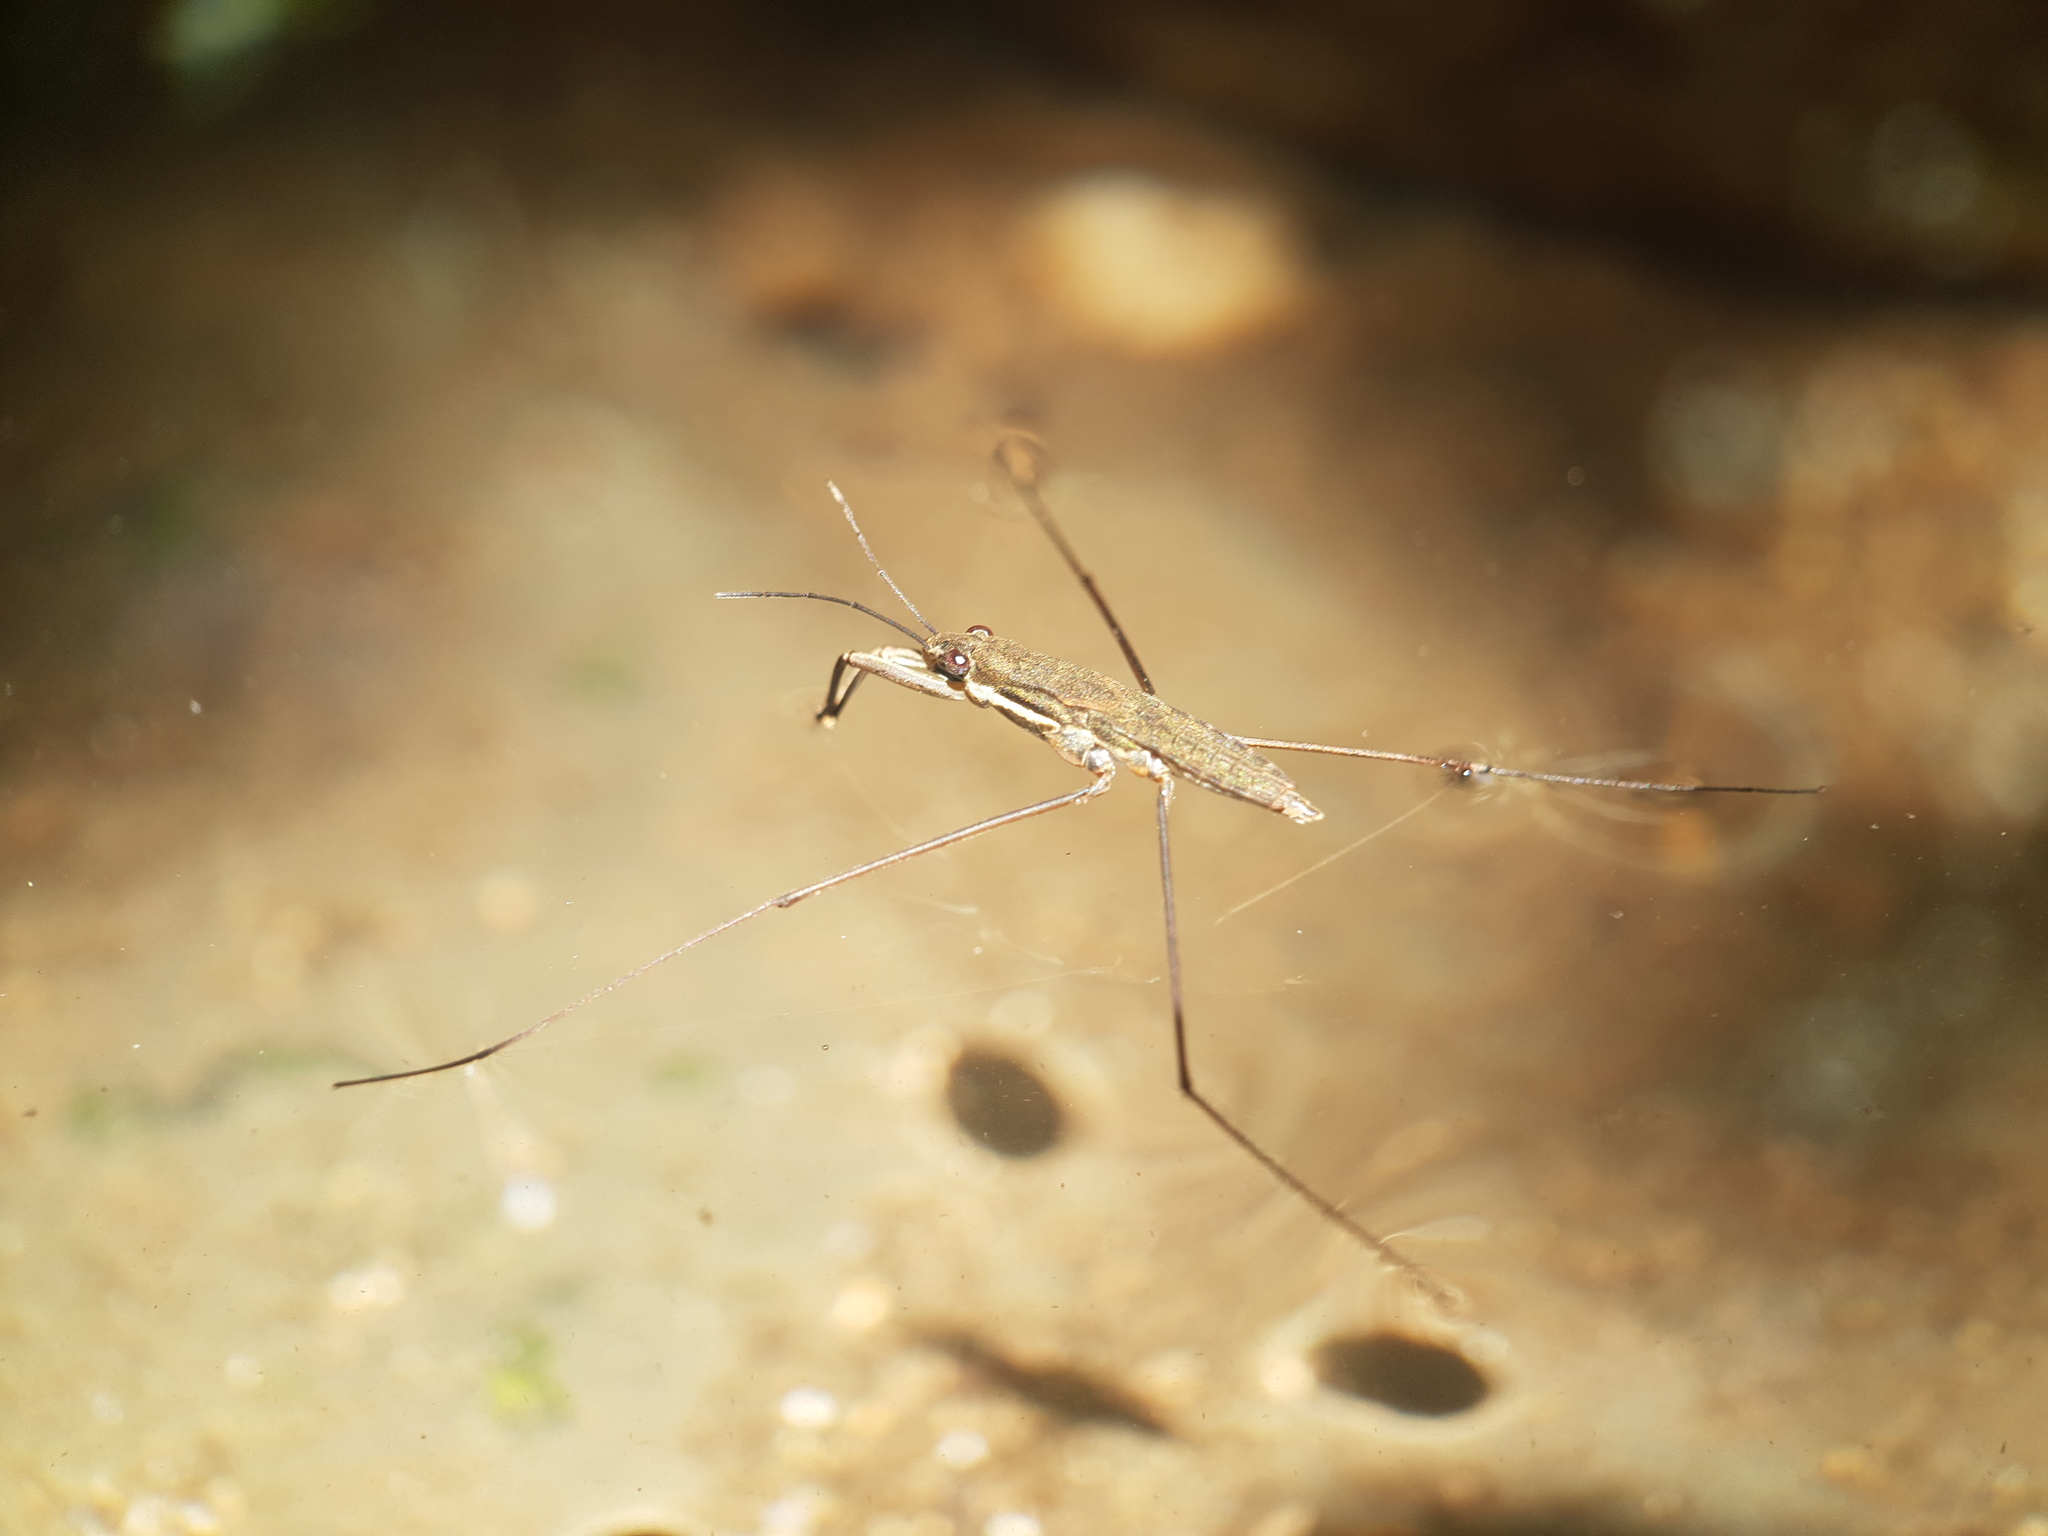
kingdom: Animalia
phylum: Arthropoda
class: Insecta
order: Hemiptera
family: Gerridae
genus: Aquarius
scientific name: Aquarius
